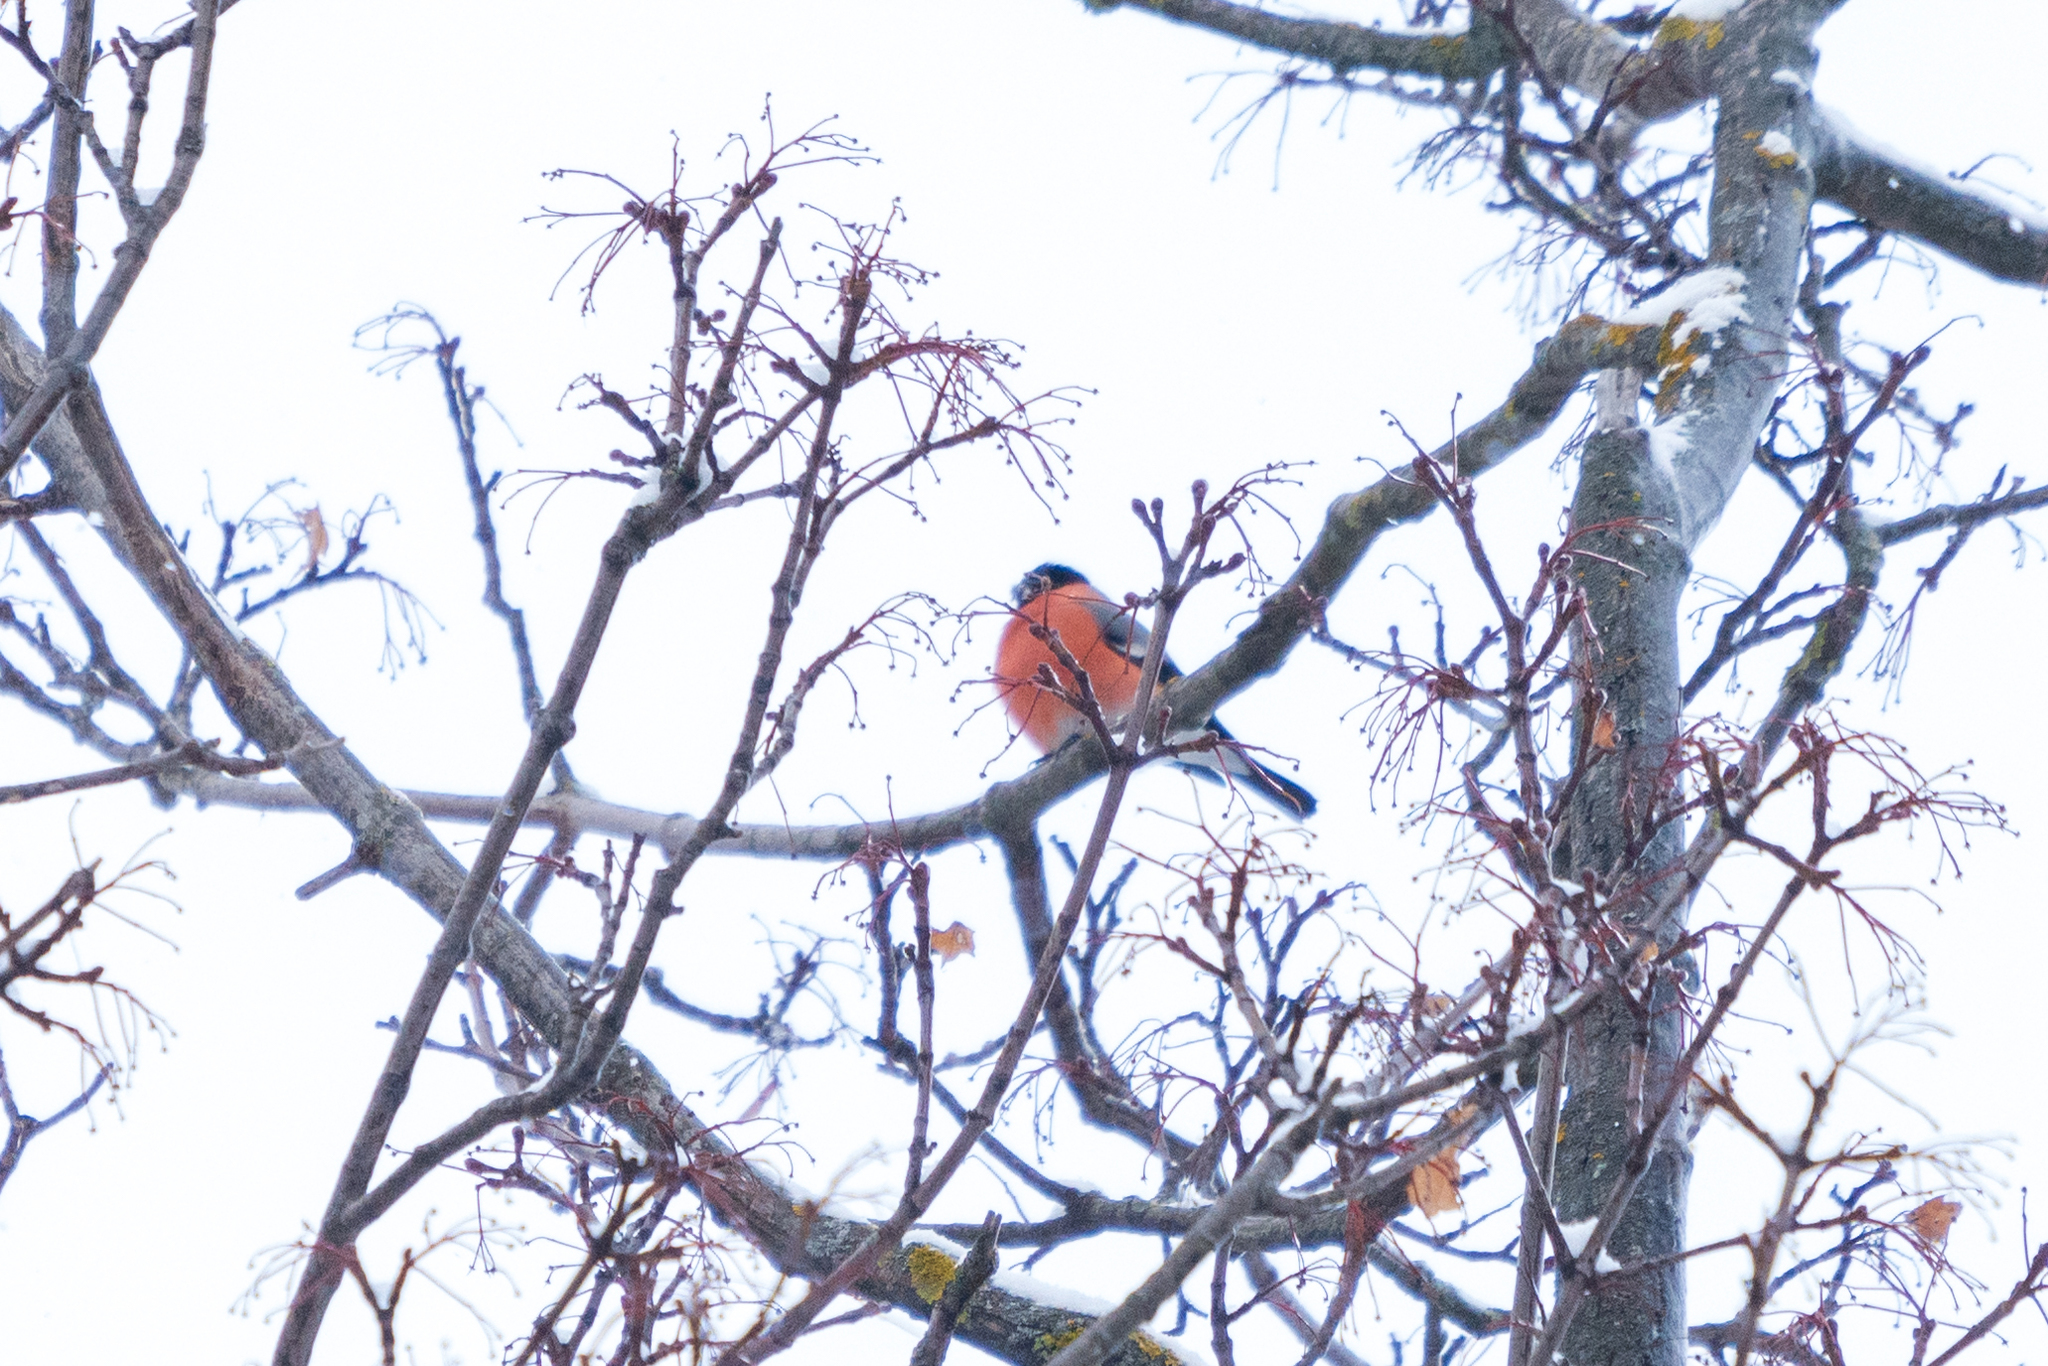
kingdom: Animalia
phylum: Chordata
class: Aves
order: Passeriformes
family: Fringillidae
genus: Pyrrhula
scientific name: Pyrrhula pyrrhula
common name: Eurasian bullfinch
